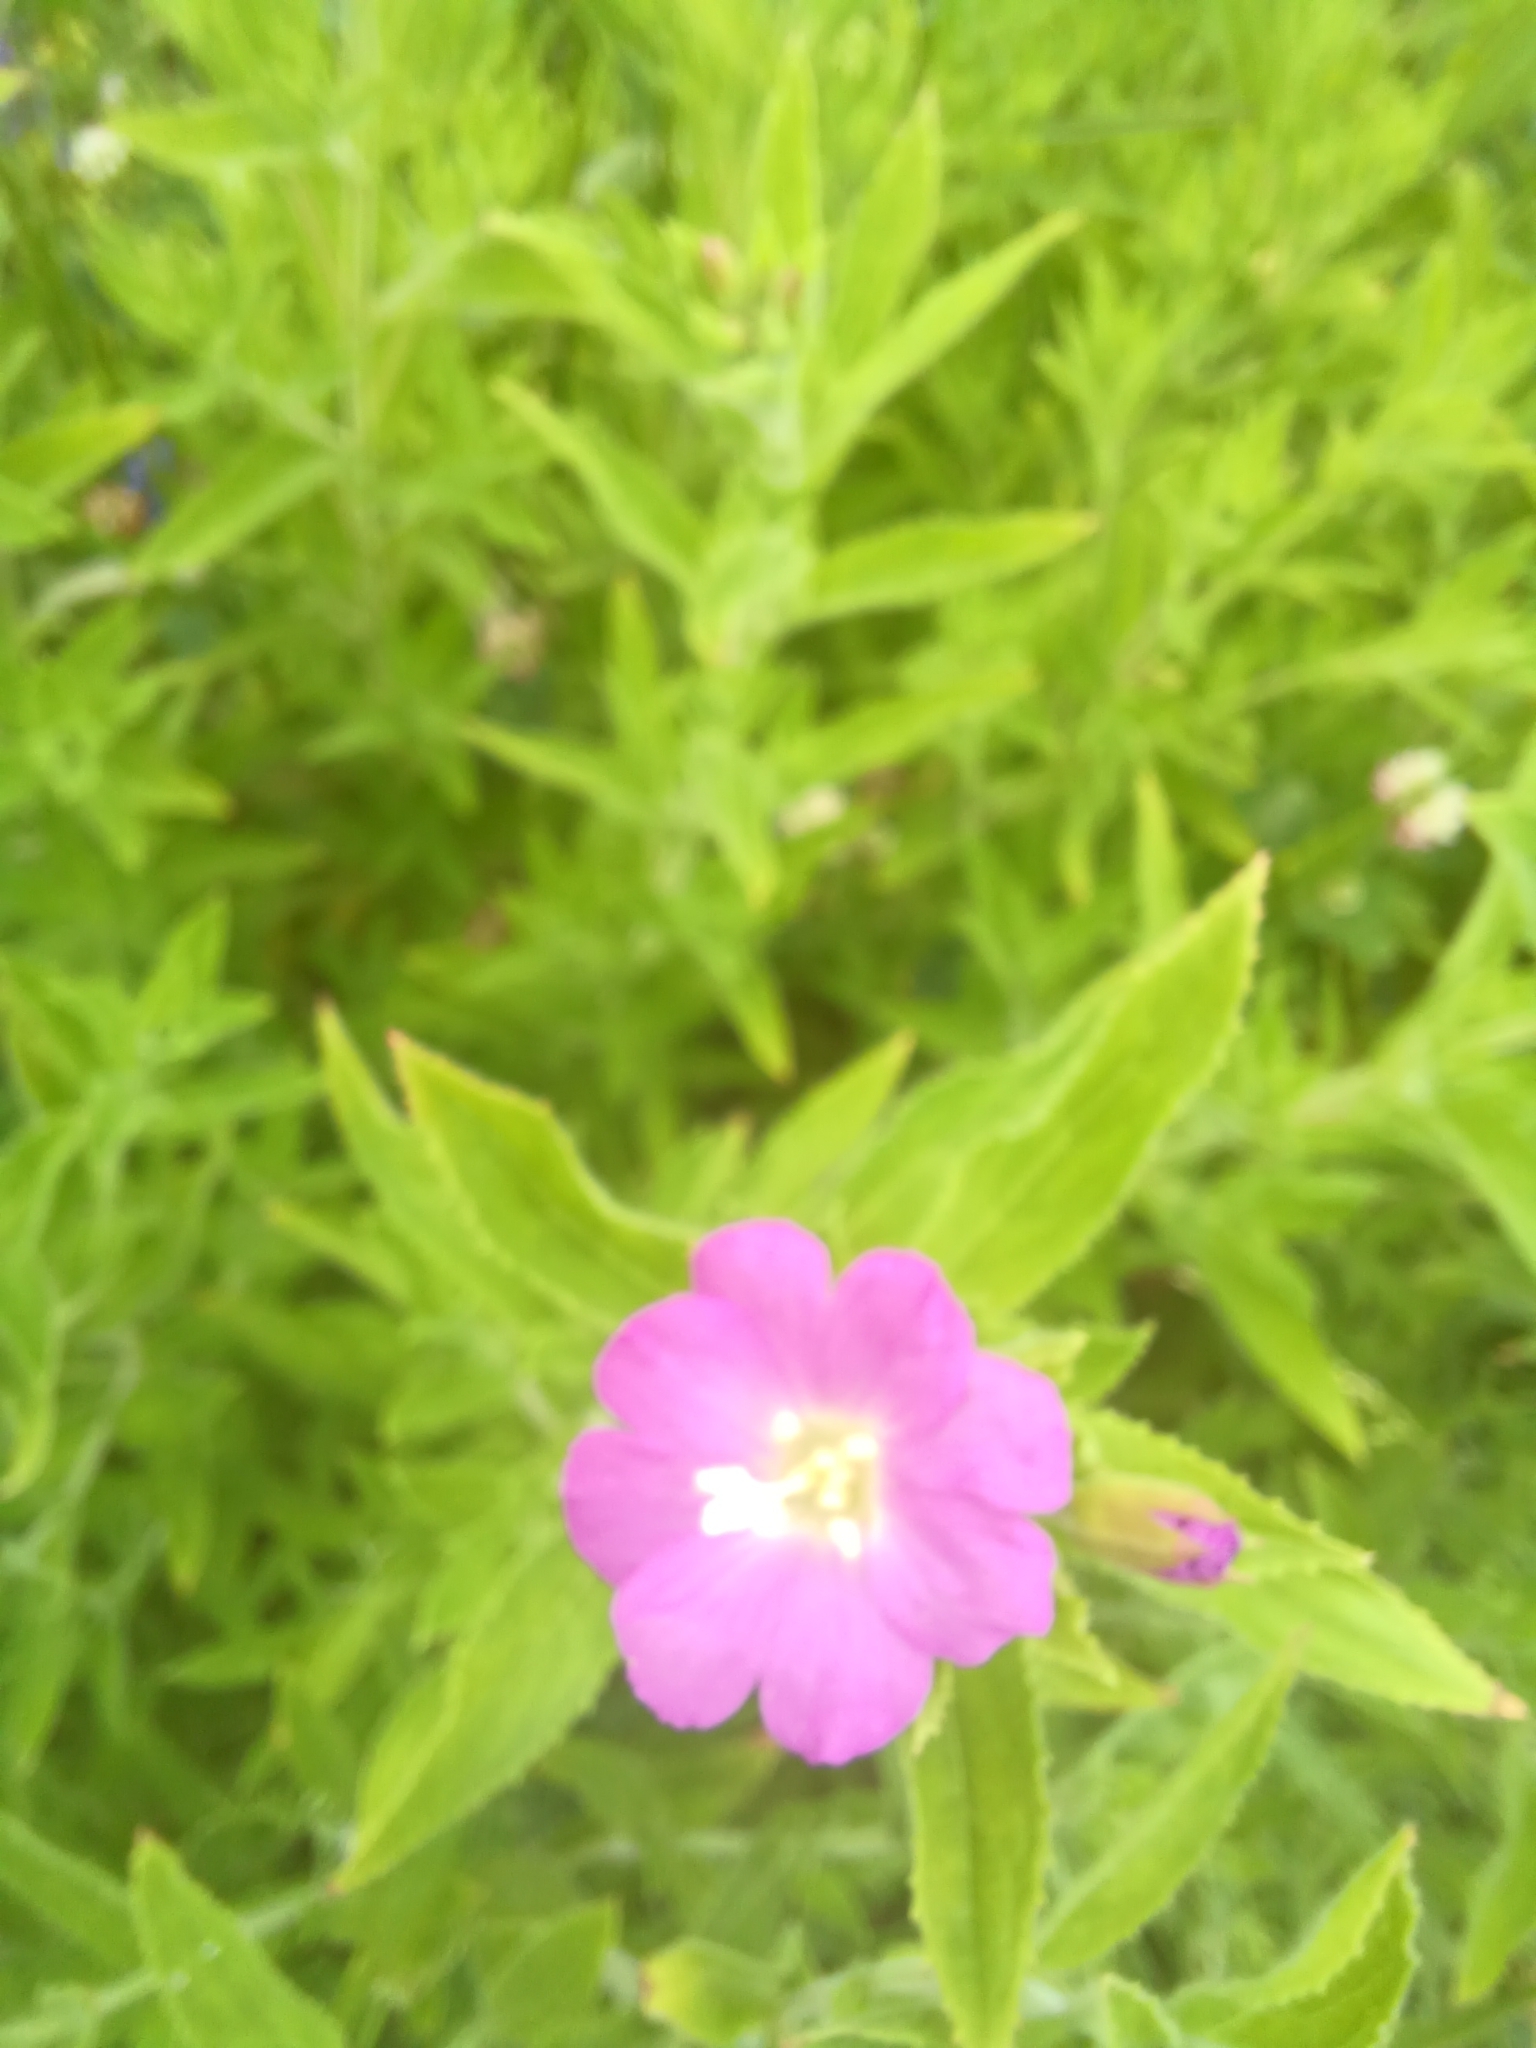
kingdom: Plantae
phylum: Tracheophyta
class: Magnoliopsida
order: Myrtales
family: Onagraceae
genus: Epilobium
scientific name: Epilobium hirsutum
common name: Great willowherb
